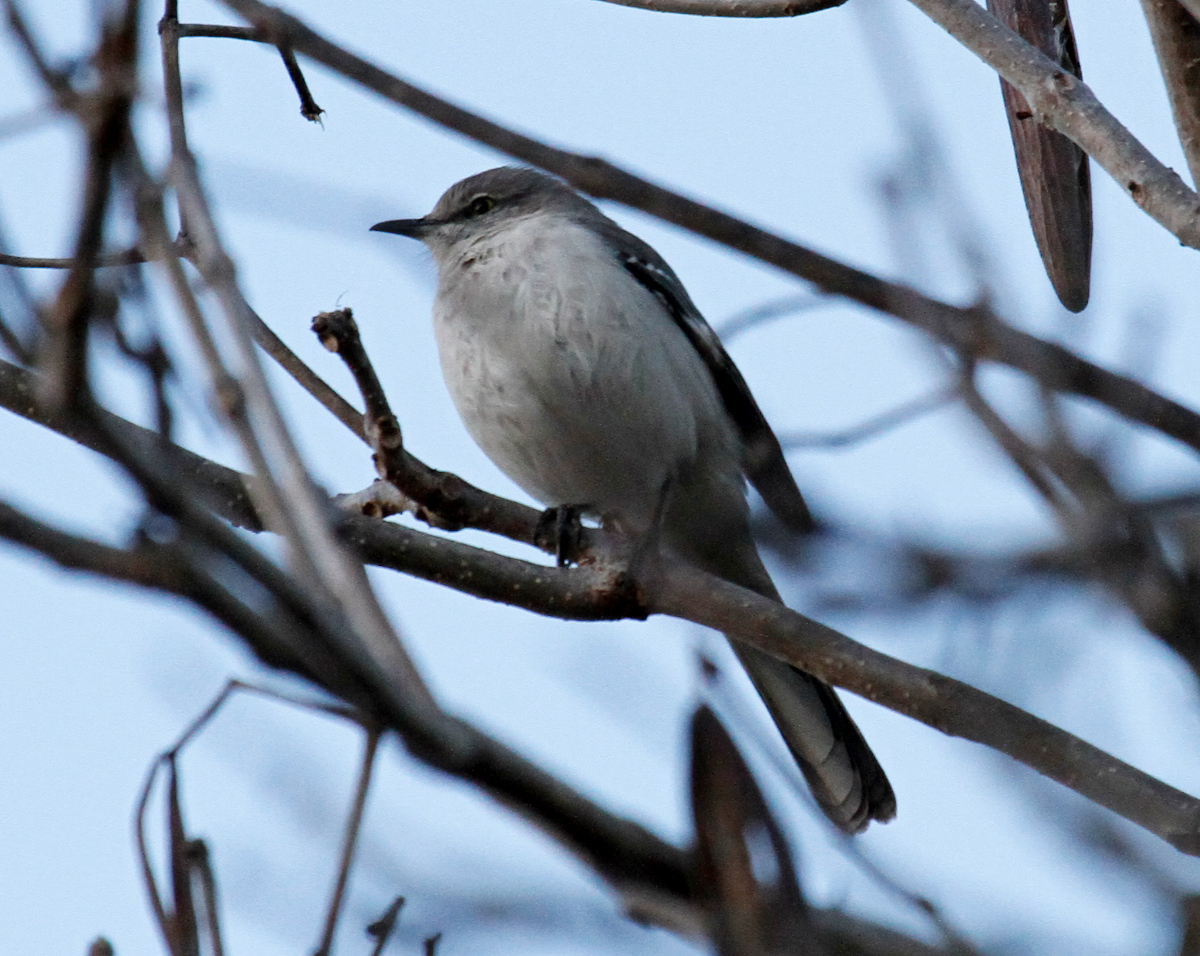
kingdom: Animalia
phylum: Chordata
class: Aves
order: Passeriformes
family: Mimidae
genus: Mimus
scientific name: Mimus polyglottos
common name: Northern mockingbird
